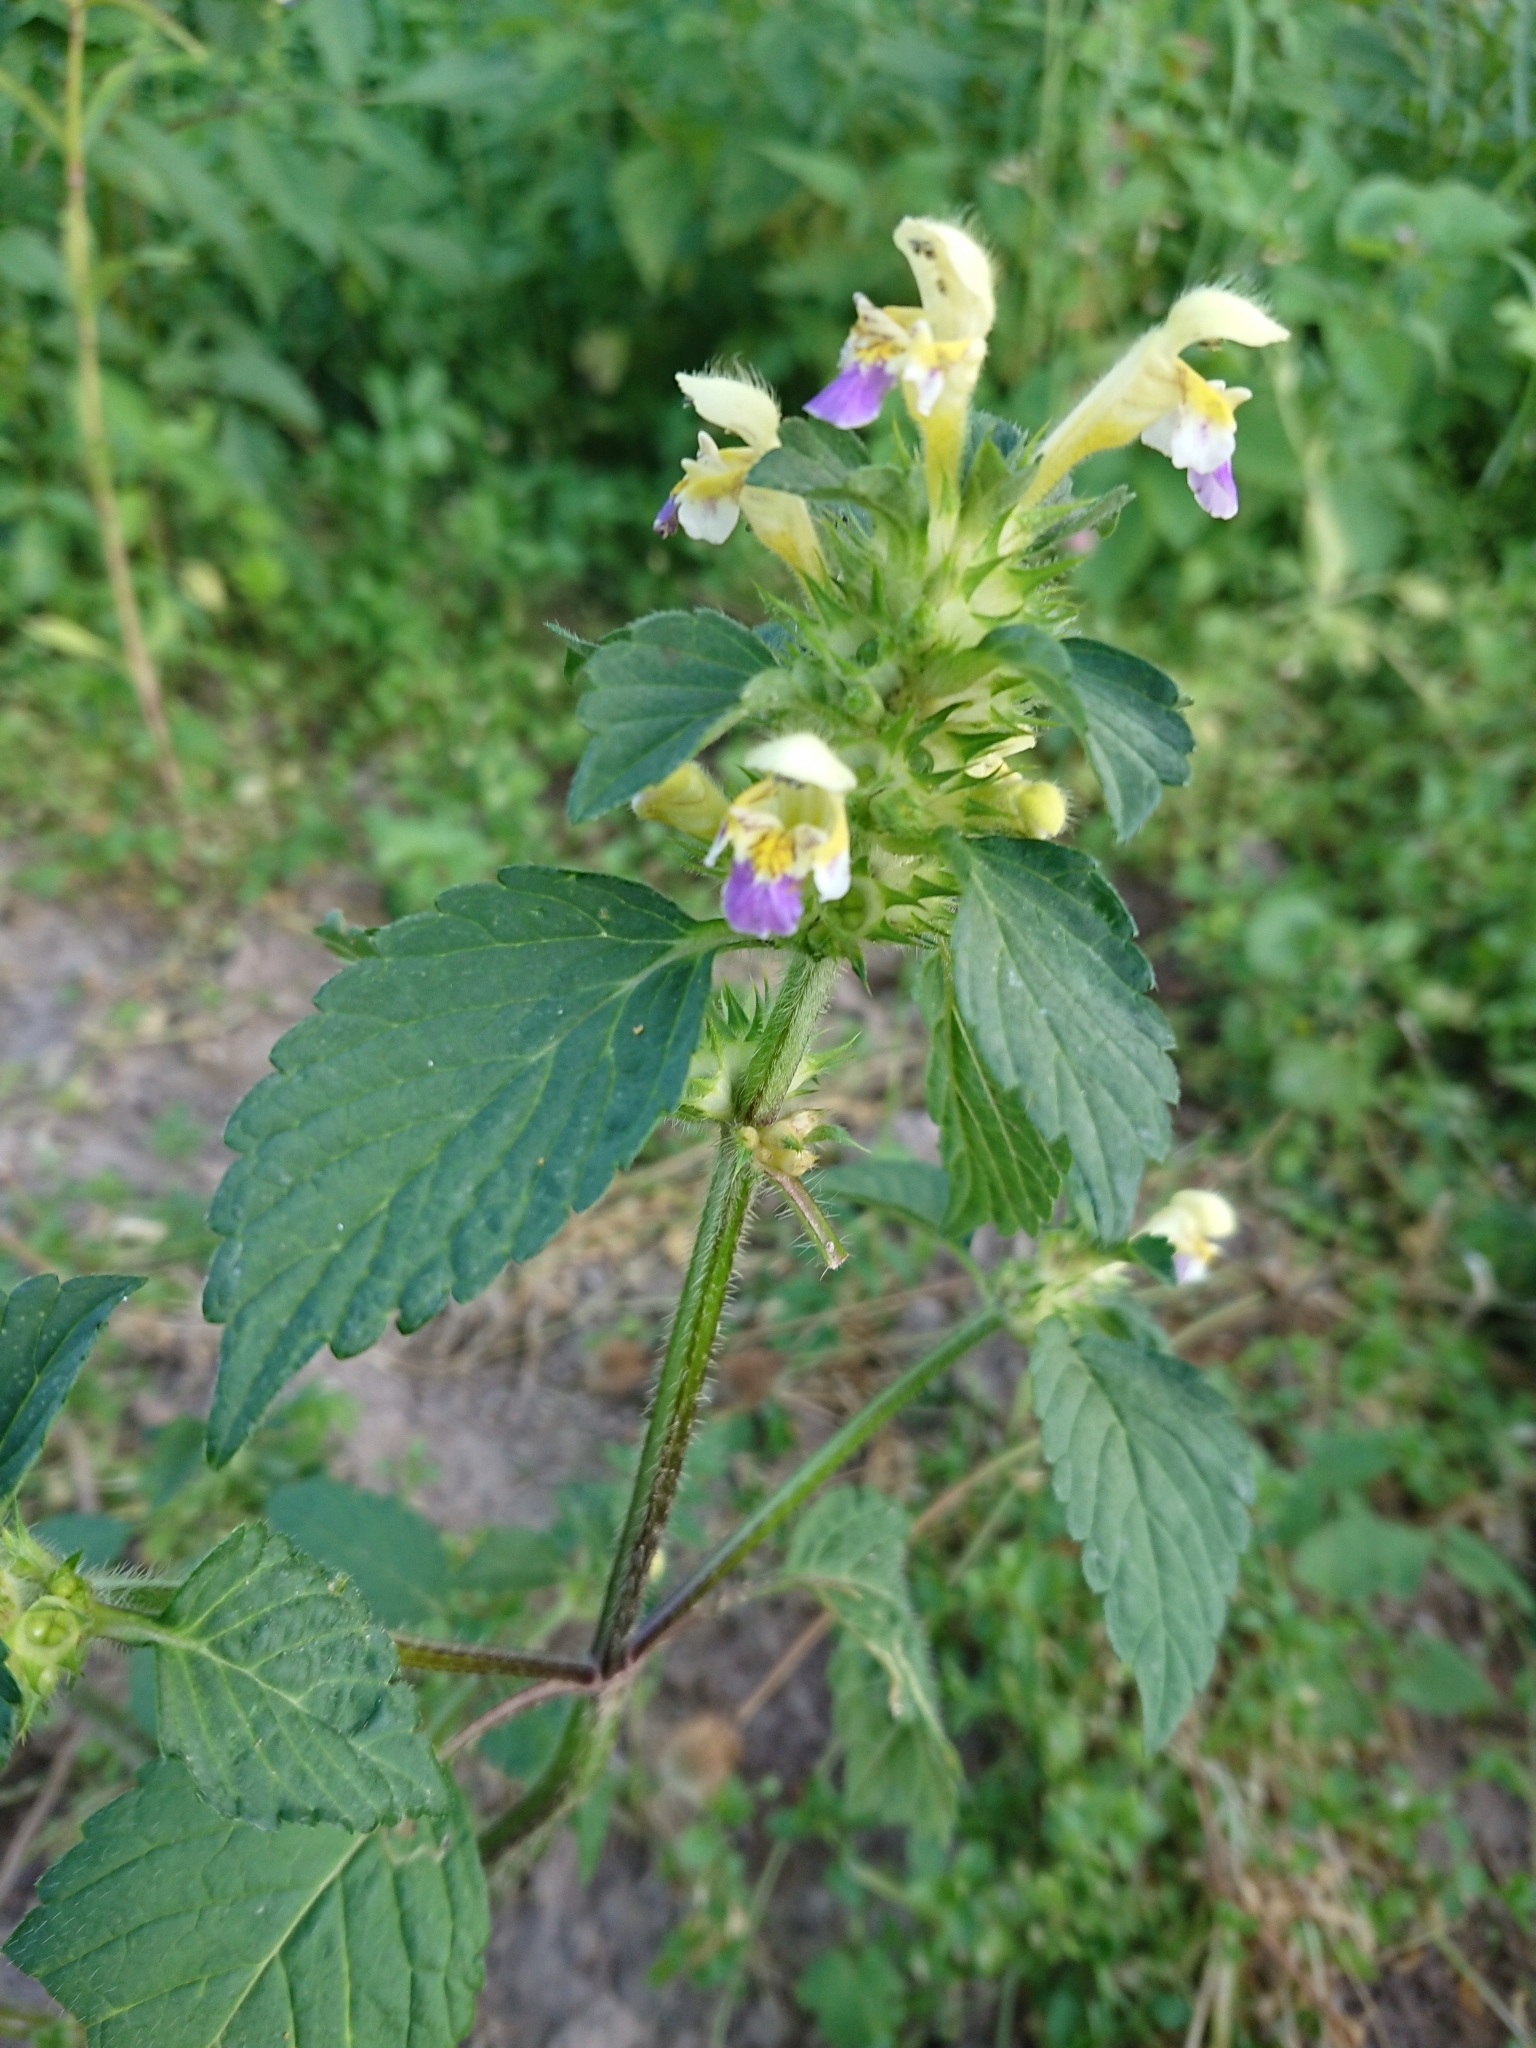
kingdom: Plantae
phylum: Tracheophyta
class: Magnoliopsida
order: Lamiales
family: Lamiaceae
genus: Galeopsis
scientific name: Galeopsis speciosa
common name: Large-flowered hemp-nettle
